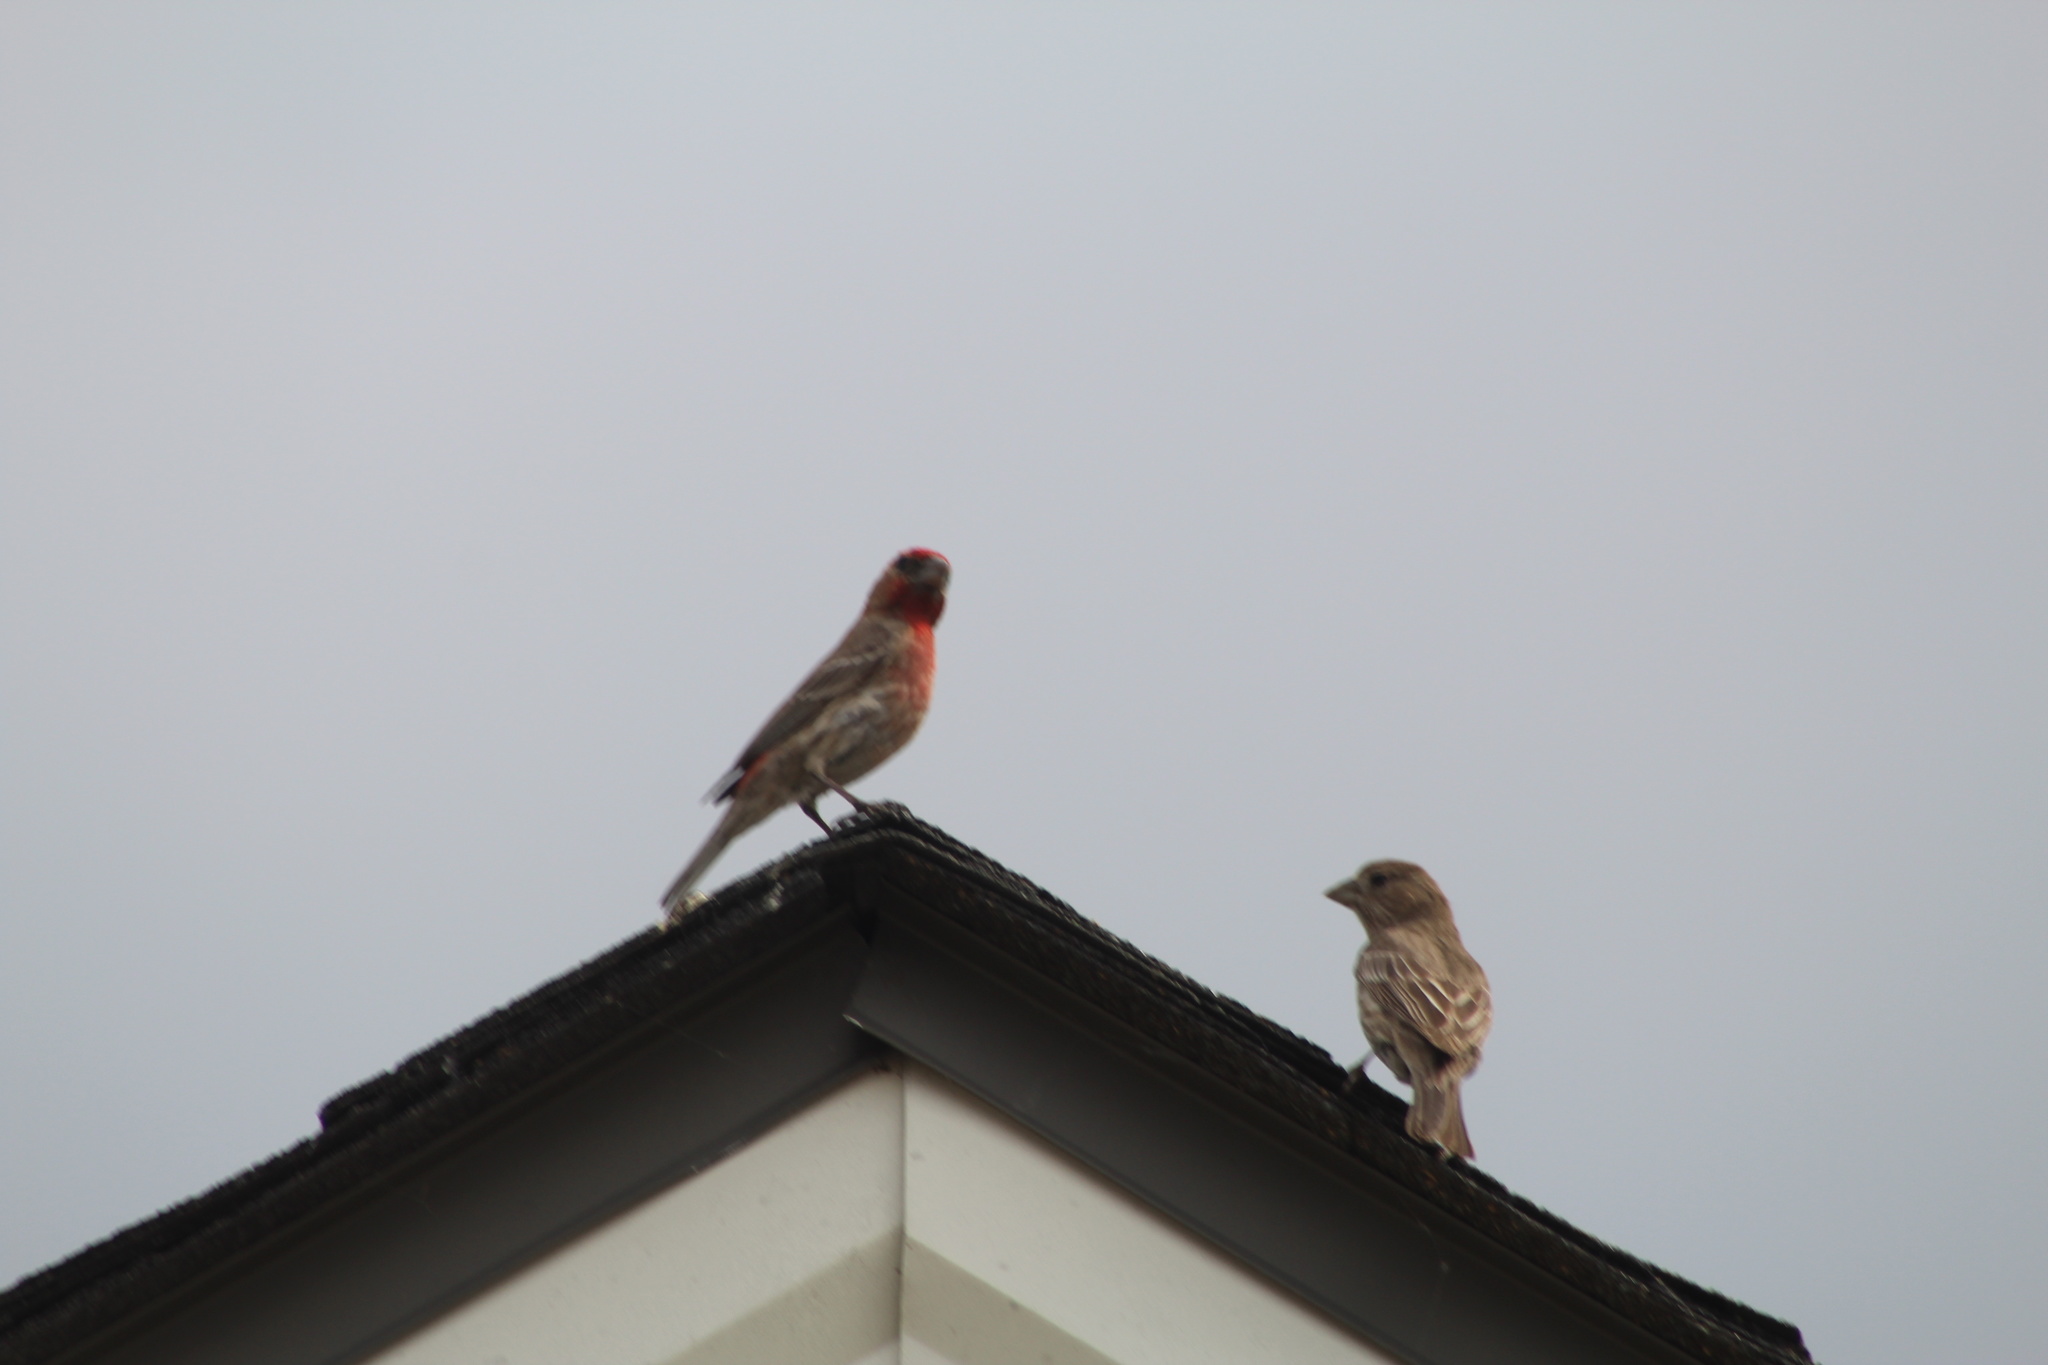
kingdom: Animalia
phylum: Chordata
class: Aves
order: Passeriformes
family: Fringillidae
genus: Haemorhous
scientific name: Haemorhous mexicanus
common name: House finch
